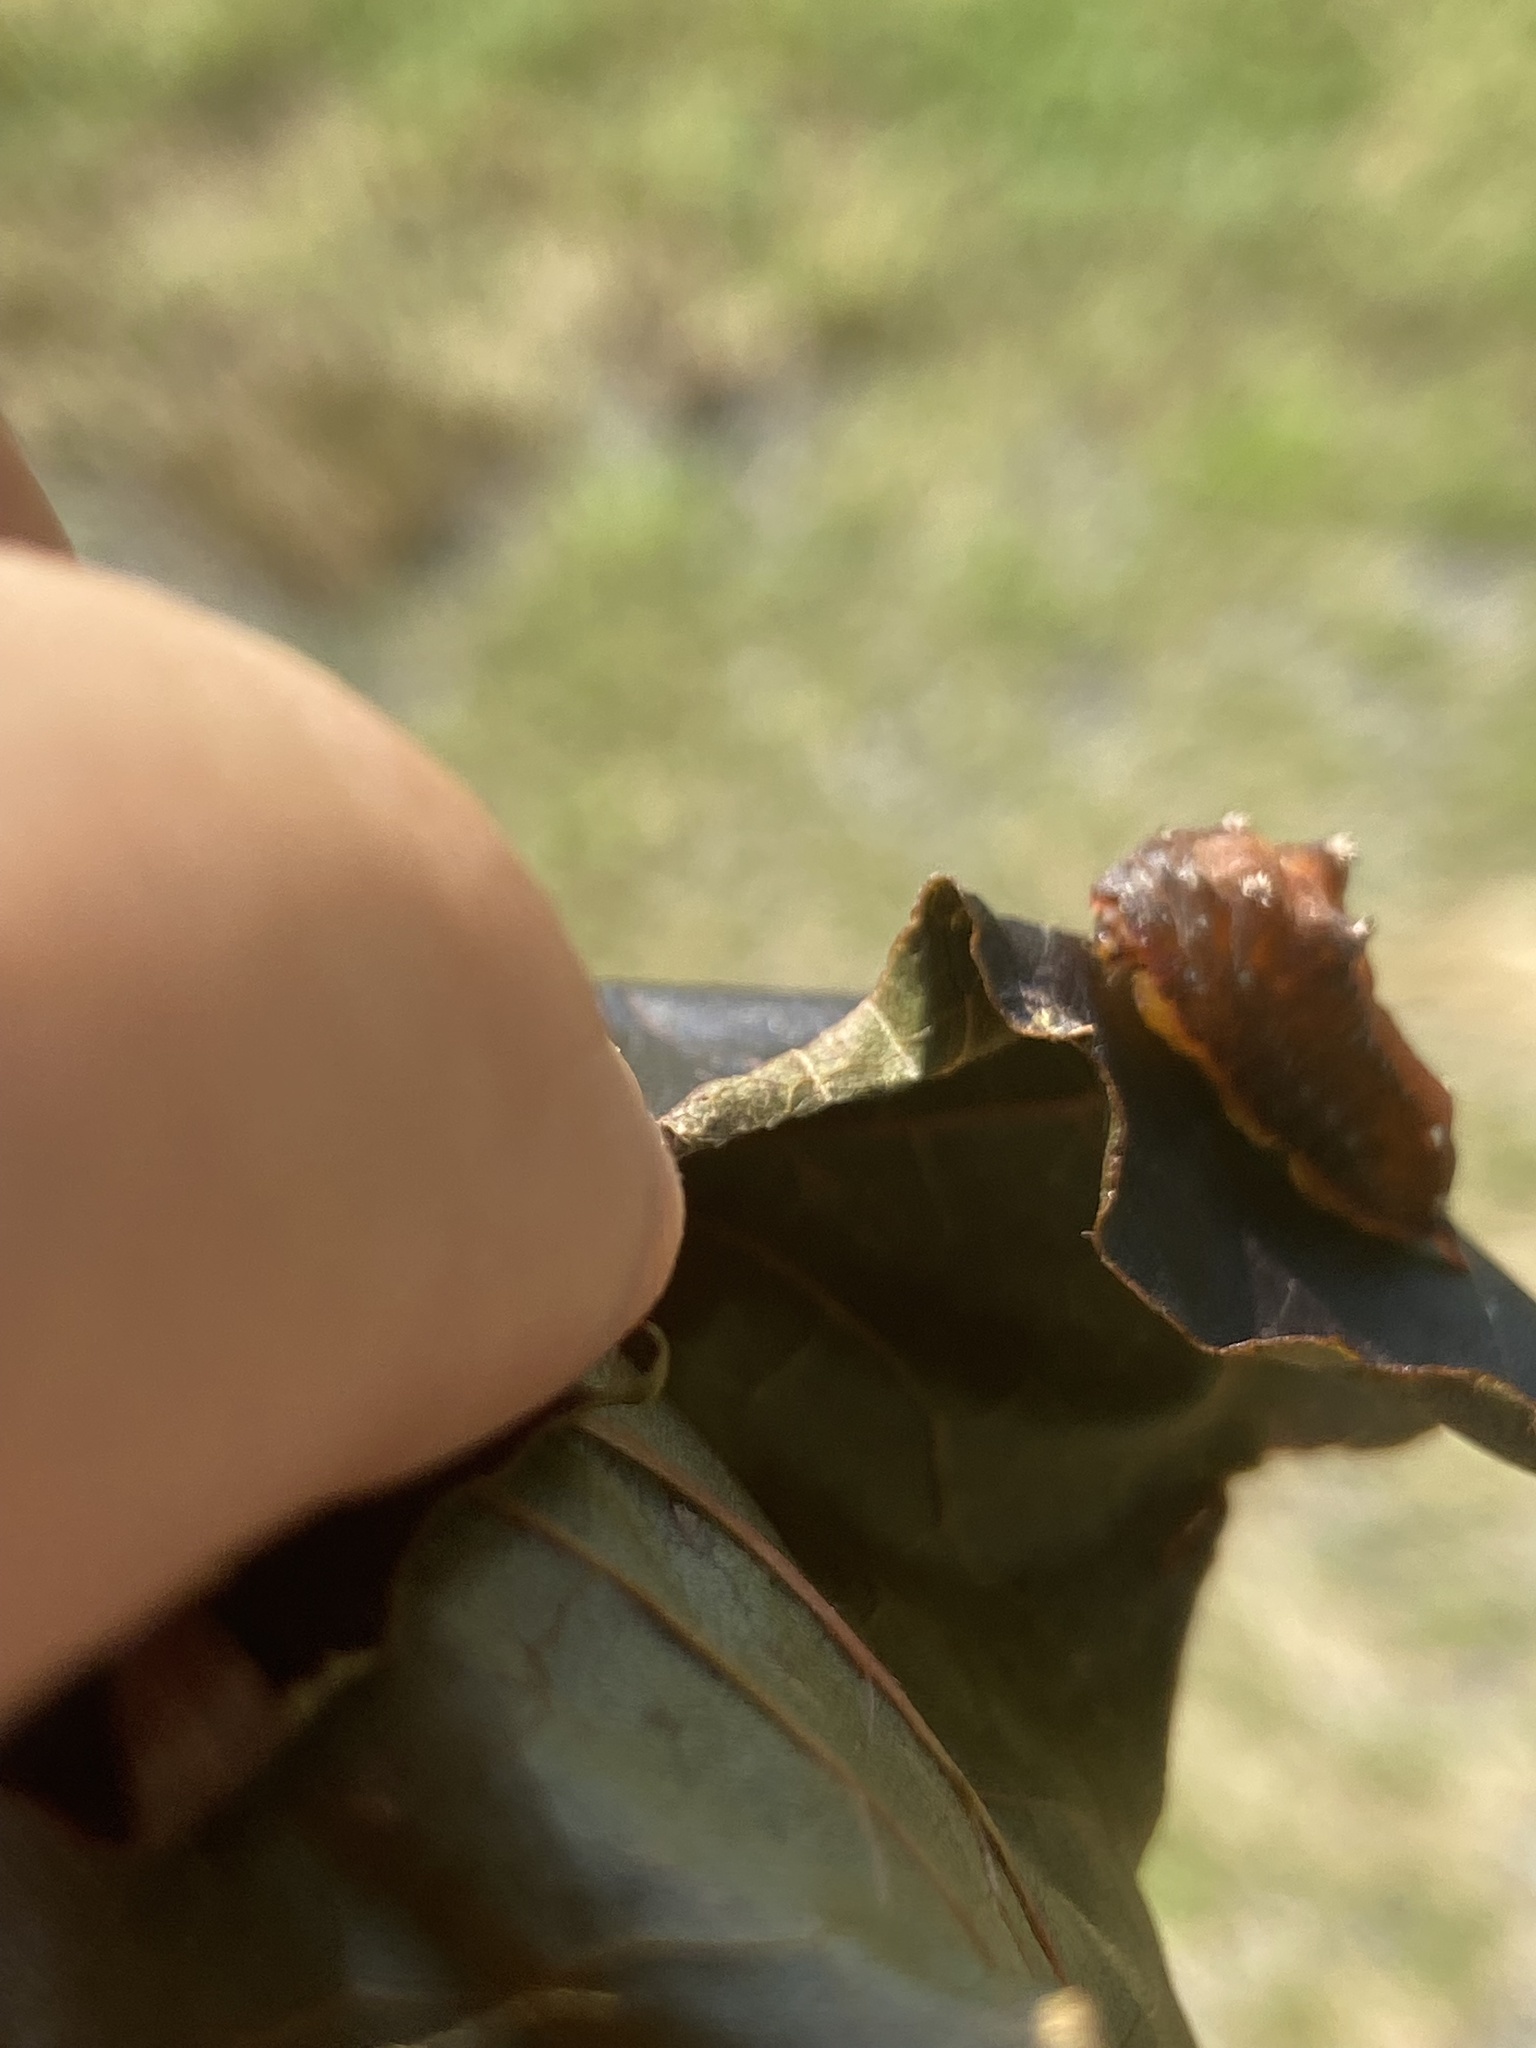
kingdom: Animalia
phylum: Arthropoda
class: Insecta
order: Lepidoptera
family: Limacodidae
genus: Parasa
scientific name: Parasa chloris
